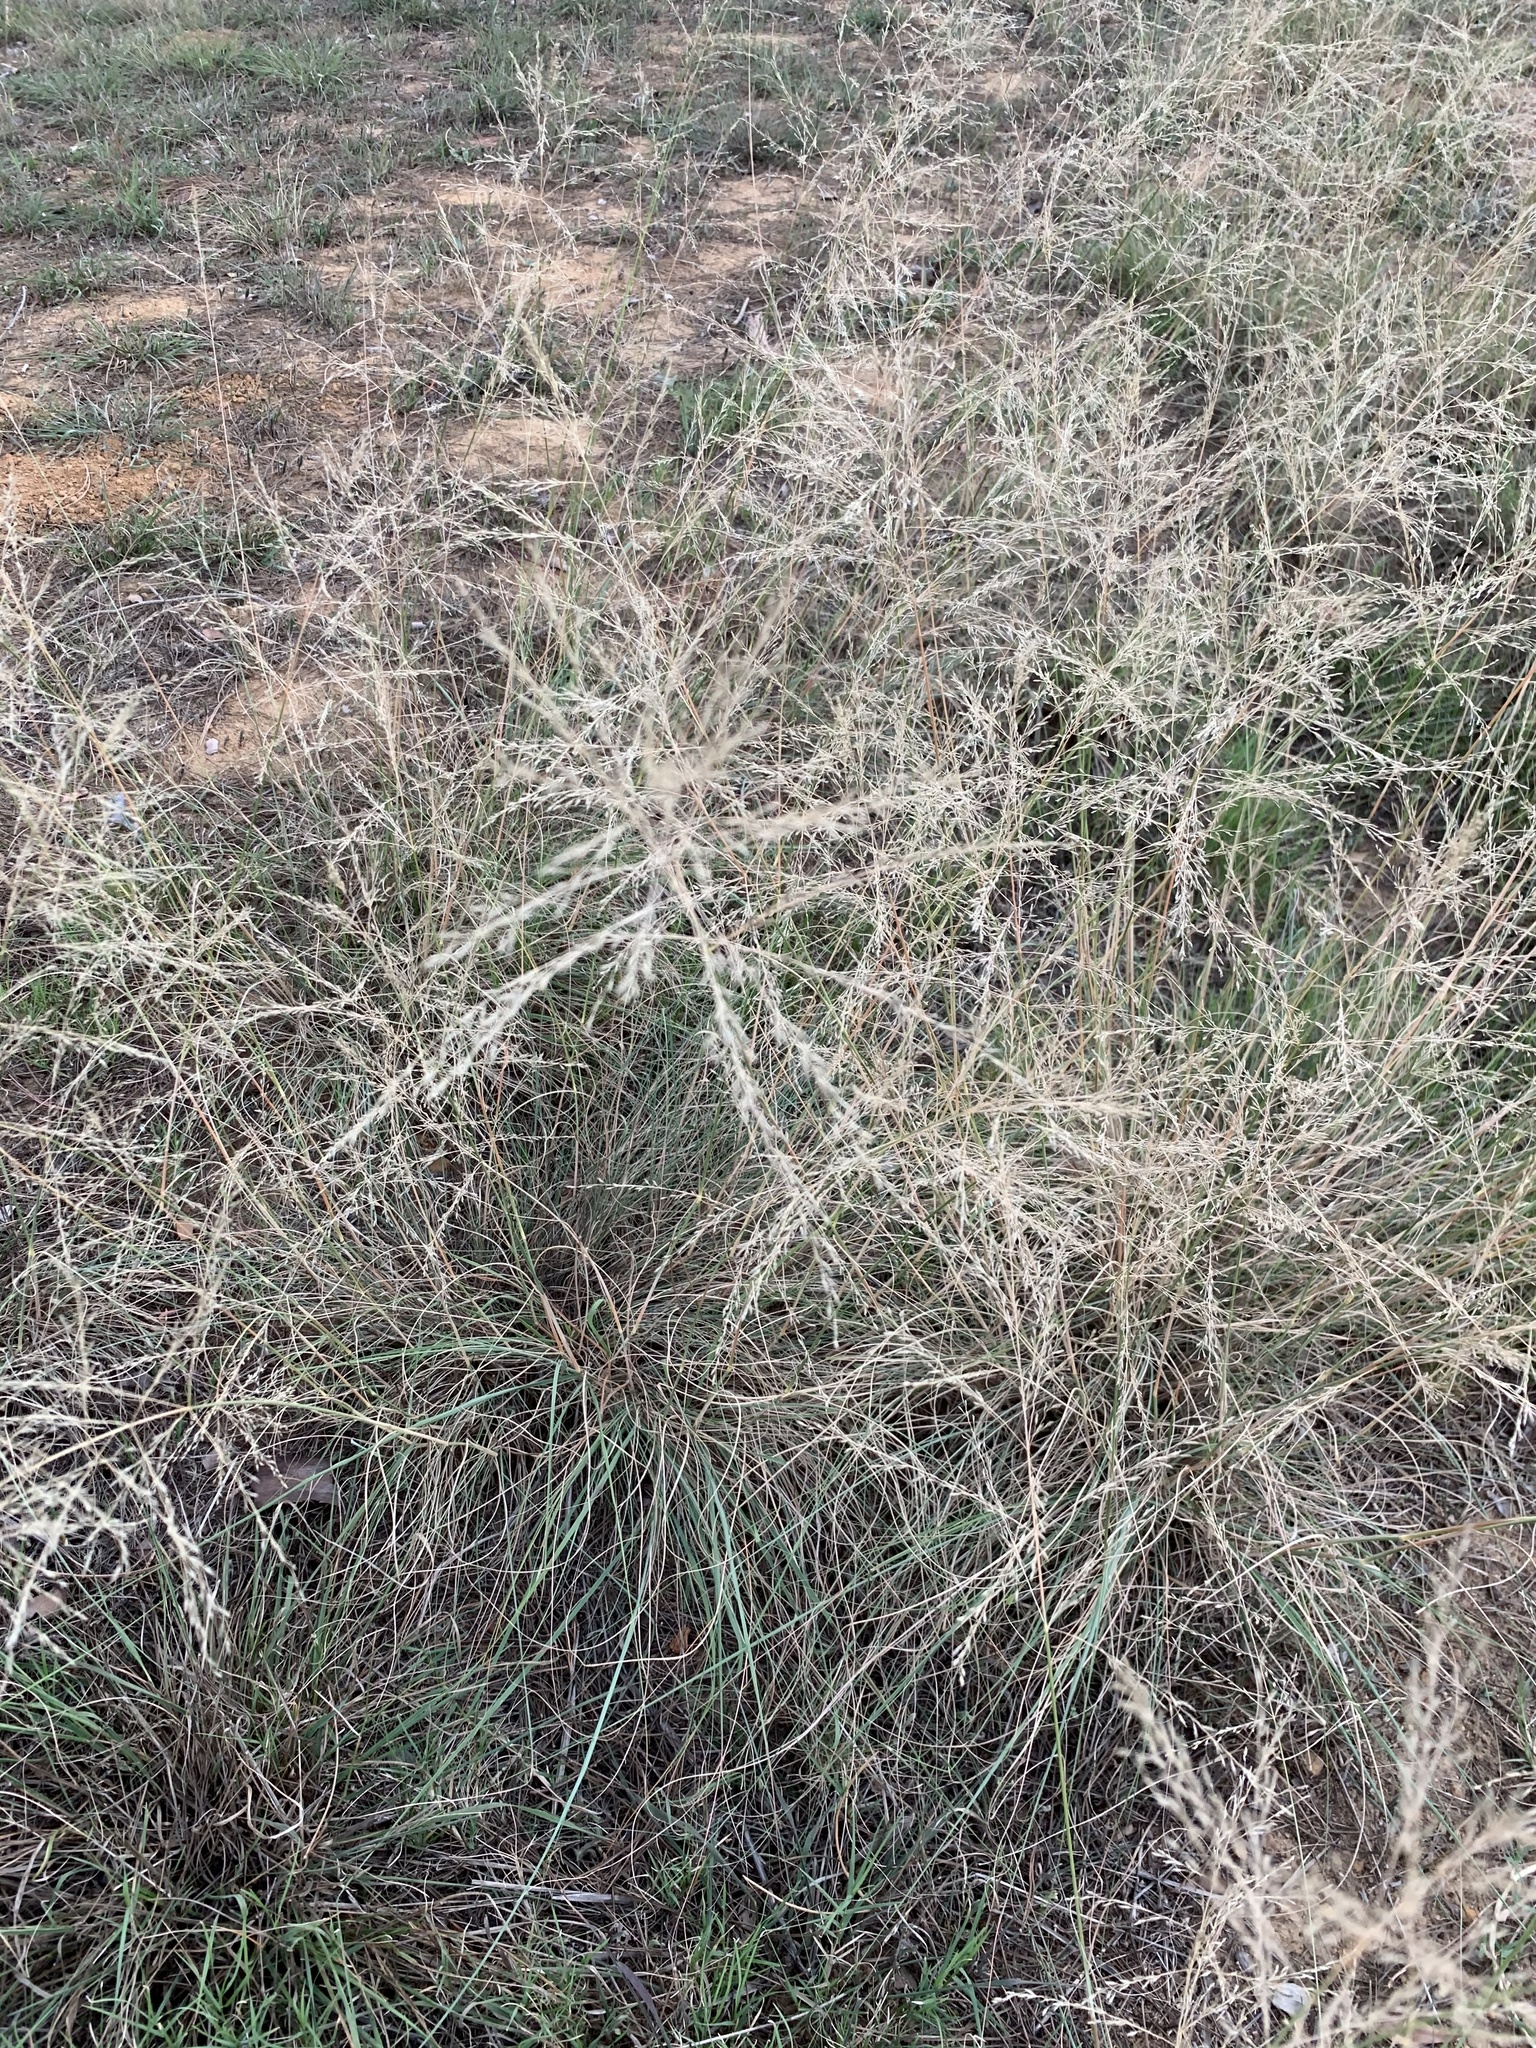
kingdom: Plantae
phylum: Tracheophyta
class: Liliopsida
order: Poales
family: Poaceae
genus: Eragrostis
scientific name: Eragrostis curvula
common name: African love-grass
